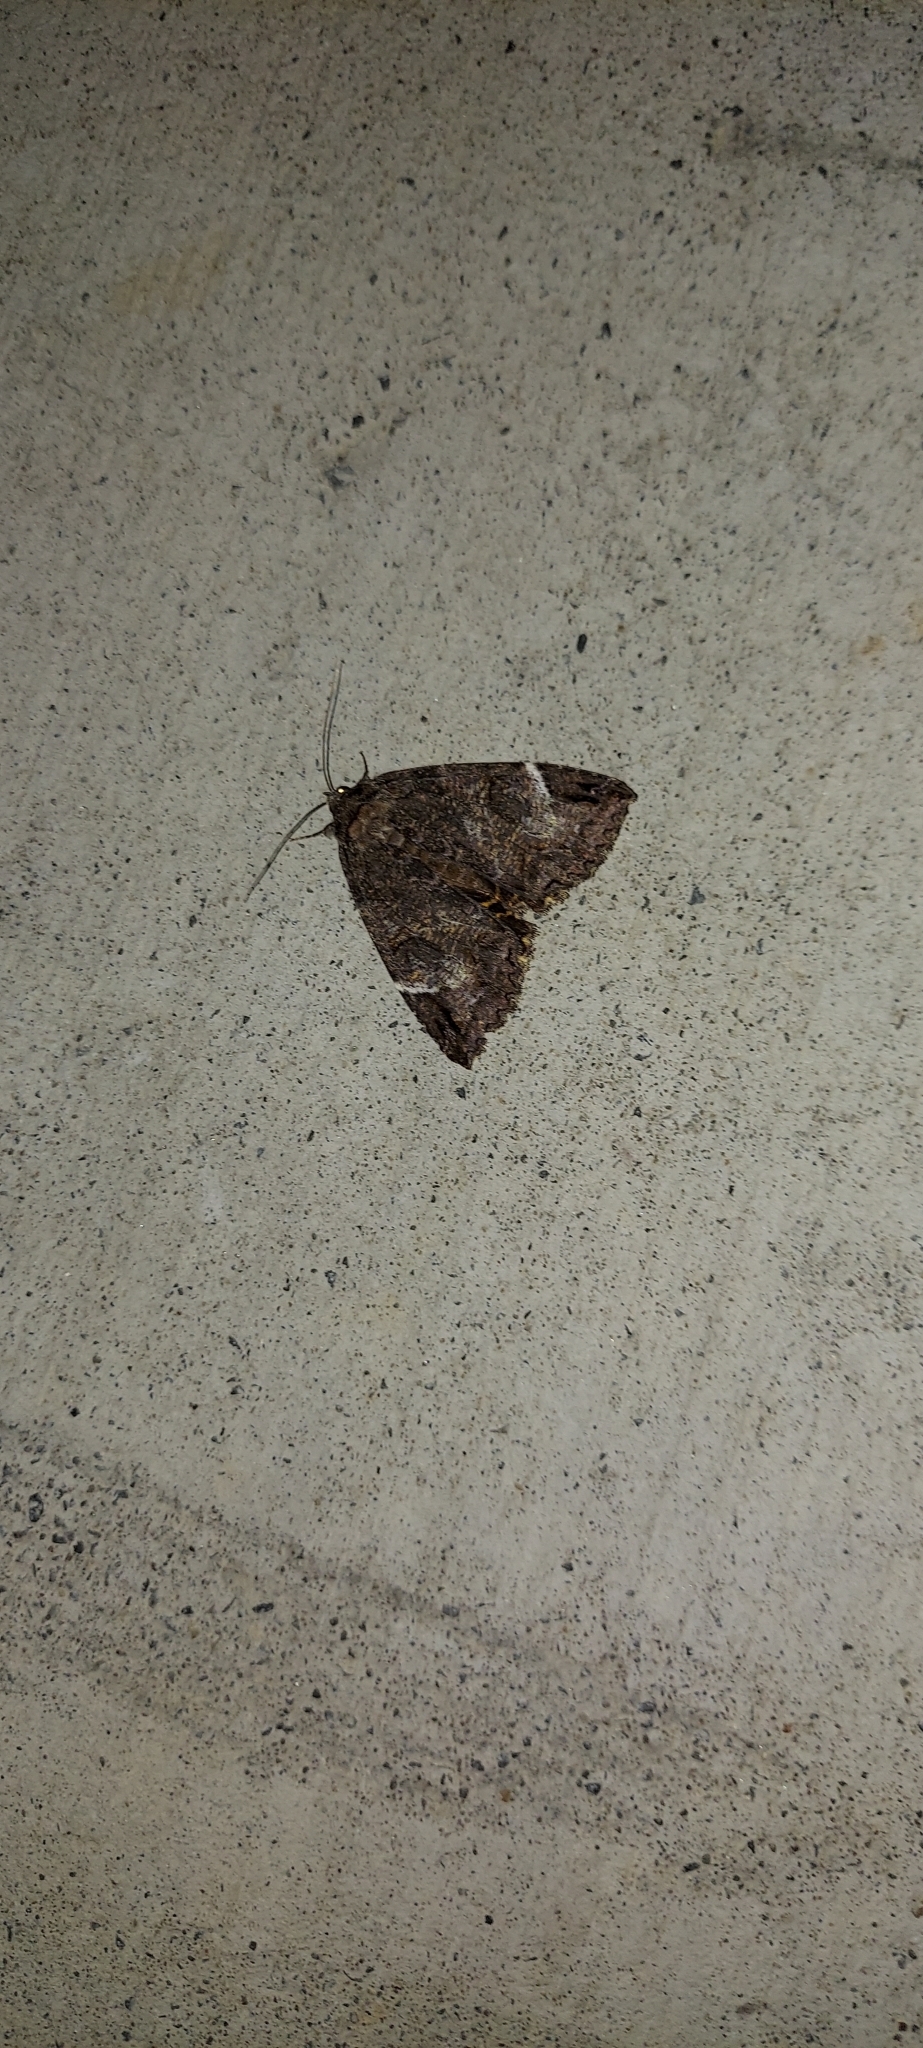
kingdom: Animalia
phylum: Arthropoda
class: Insecta
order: Lepidoptera
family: Erebidae
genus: Euparthenos
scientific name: Euparthenos nubilis
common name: Locust underwing
